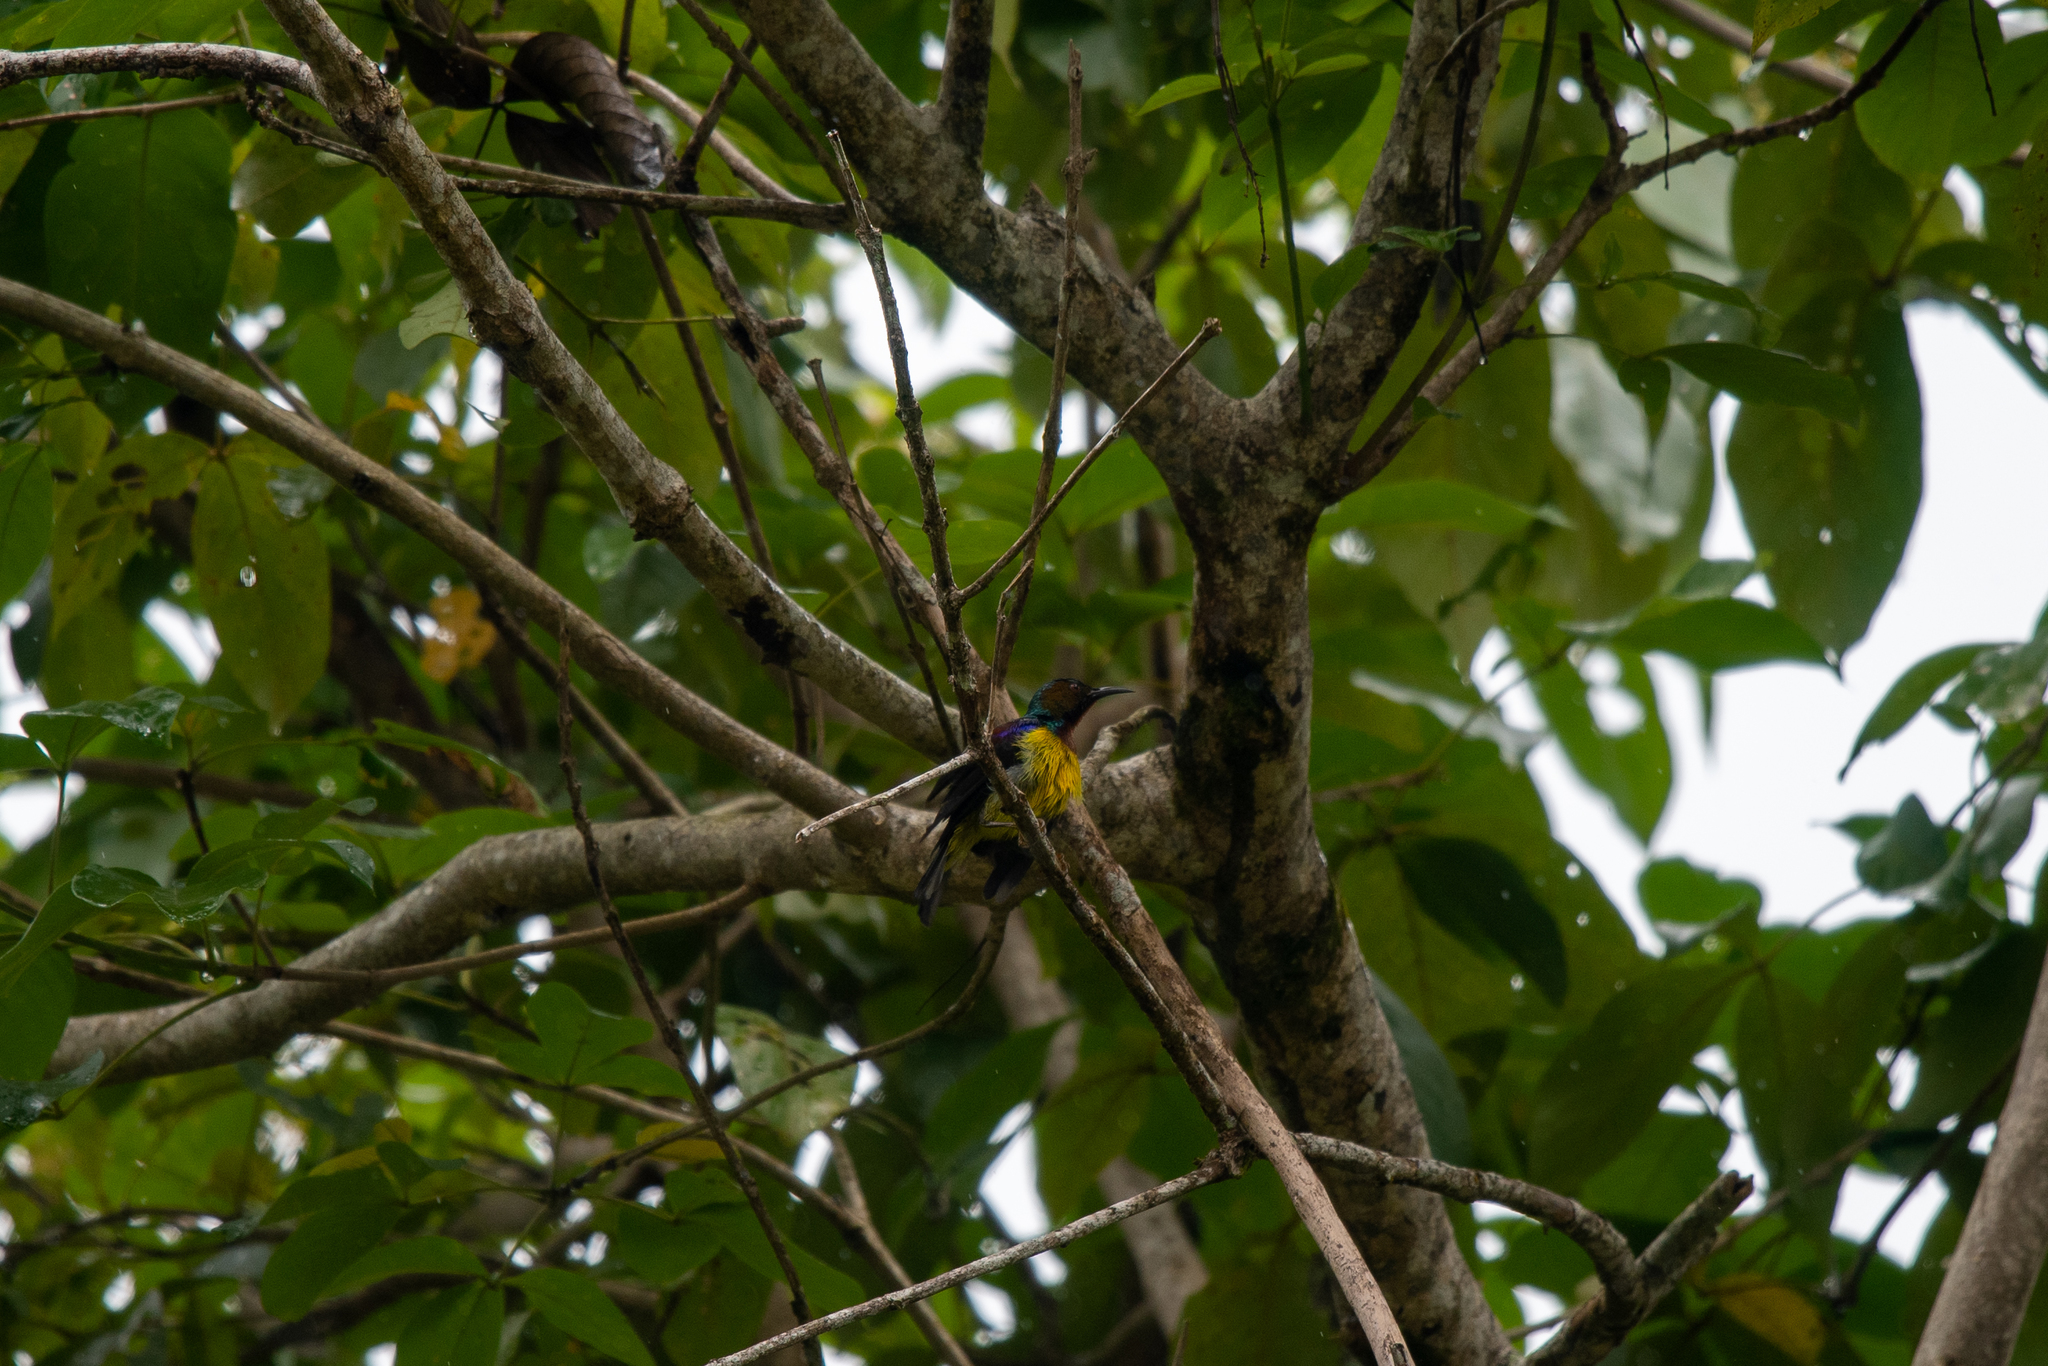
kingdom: Animalia
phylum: Chordata
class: Aves
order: Passeriformes
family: Nectariniidae
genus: Anthreptes
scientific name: Anthreptes malacensis
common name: Brown-throated sunbird
